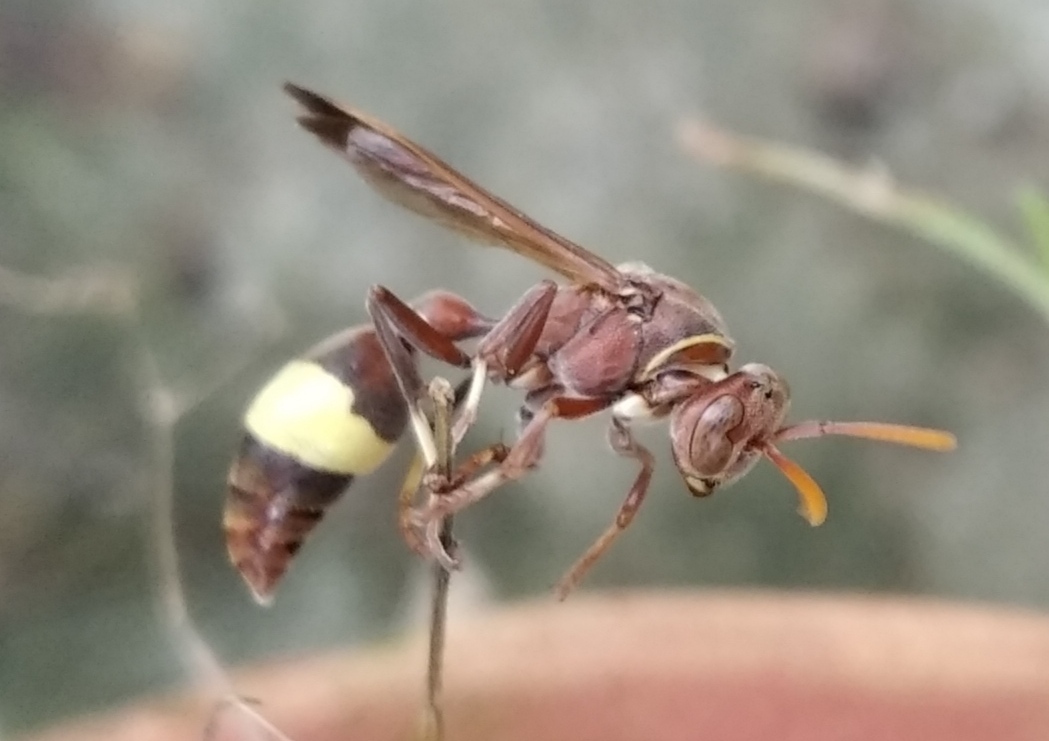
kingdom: Animalia
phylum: Arthropoda
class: Insecta
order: Hymenoptera
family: Vespidae
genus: Ropalidia
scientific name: Ropalidia
